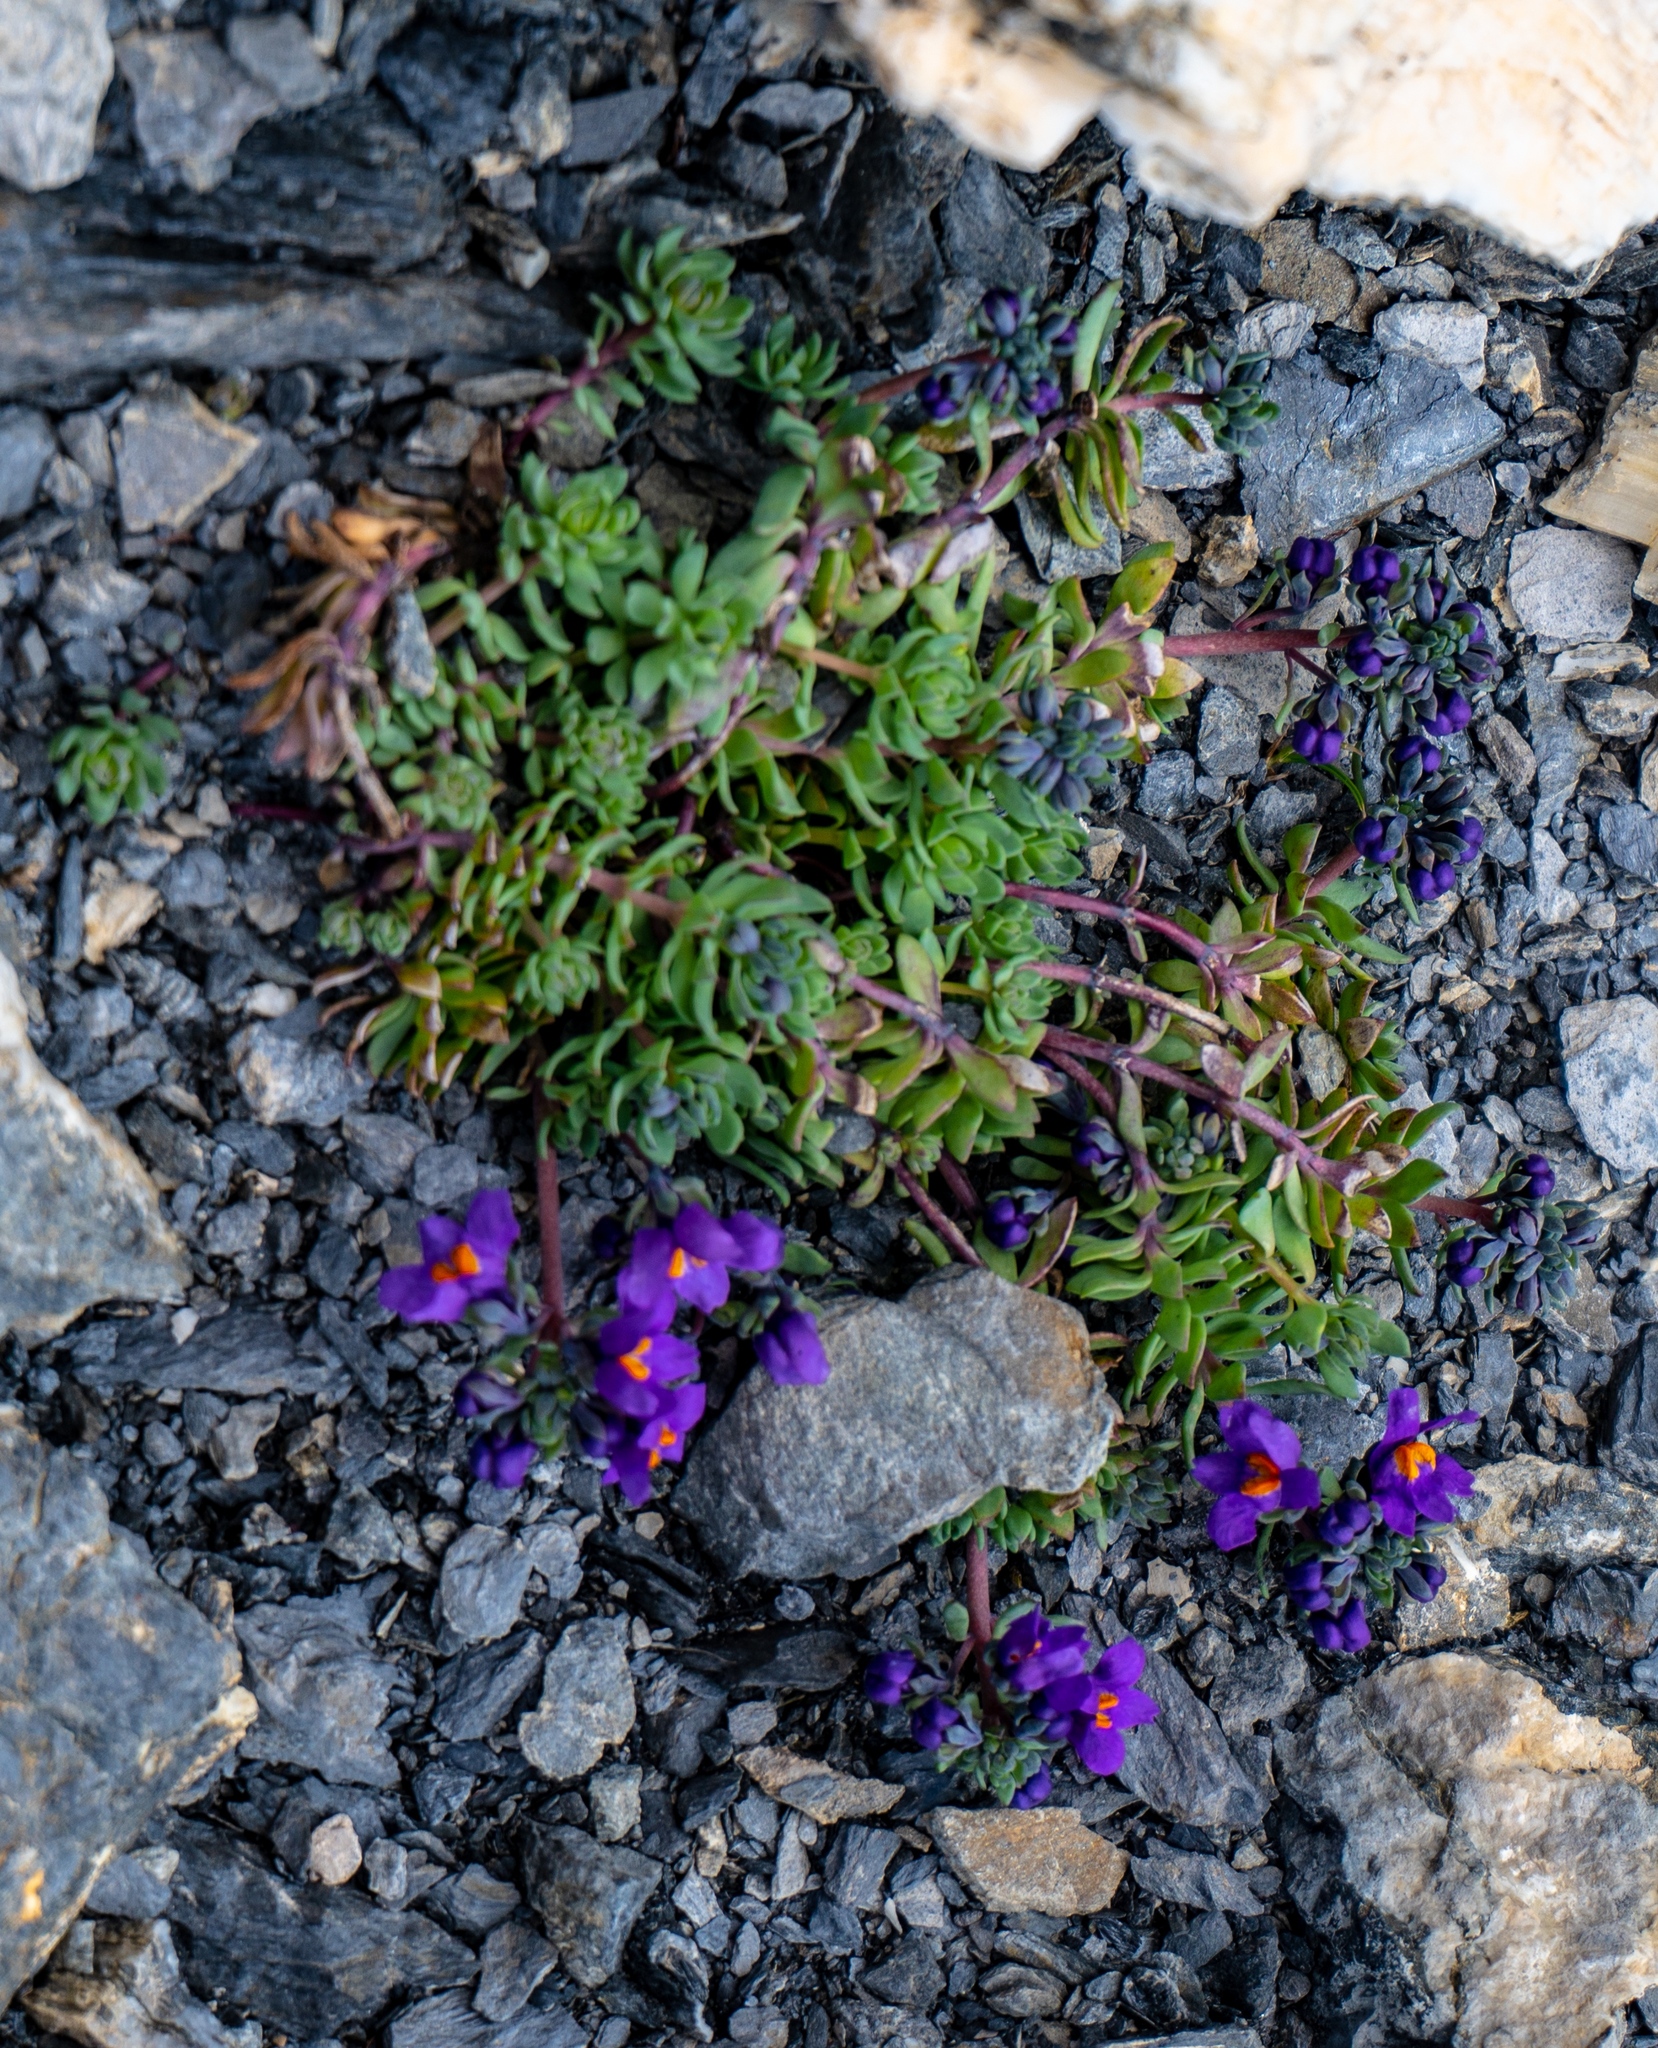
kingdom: Plantae
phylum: Tracheophyta
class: Magnoliopsida
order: Lamiales
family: Plantaginaceae
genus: Linaria
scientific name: Linaria alpina
